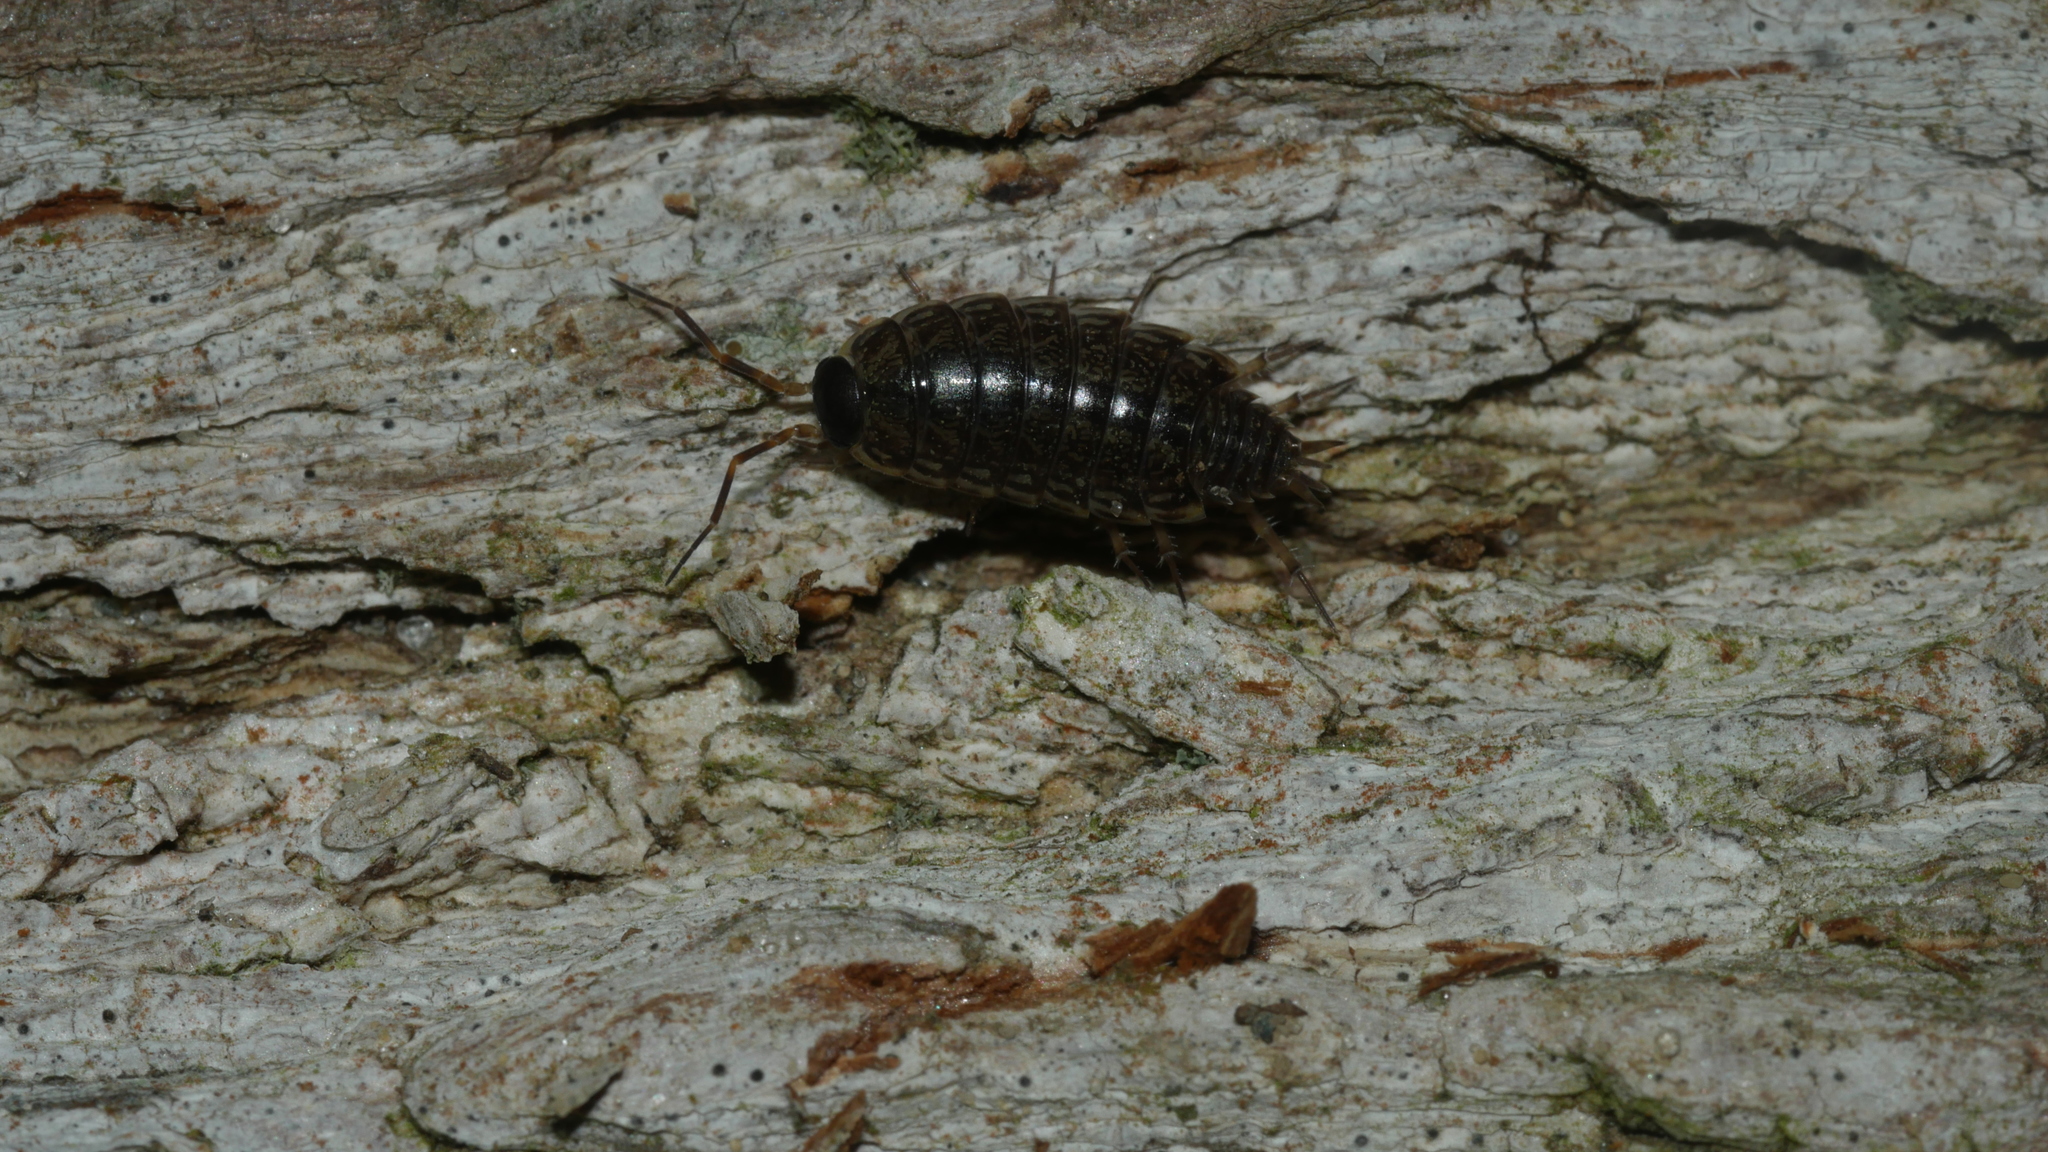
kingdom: Animalia
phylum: Arthropoda
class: Malacostraca
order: Isopoda
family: Philosciidae
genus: Philoscia
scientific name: Philoscia muscorum
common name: Common striped woodlouse
